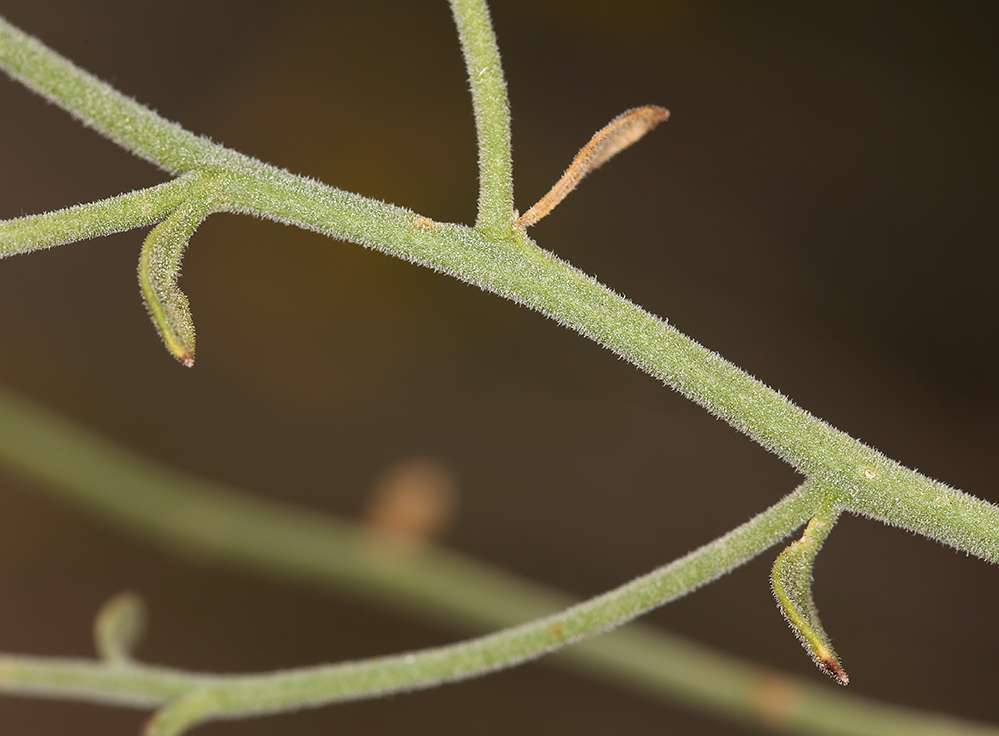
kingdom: Plantae
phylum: Tracheophyta
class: Magnoliopsida
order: Asterales
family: Asteraceae
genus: Laphamia
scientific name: Laphamia megalocephala
